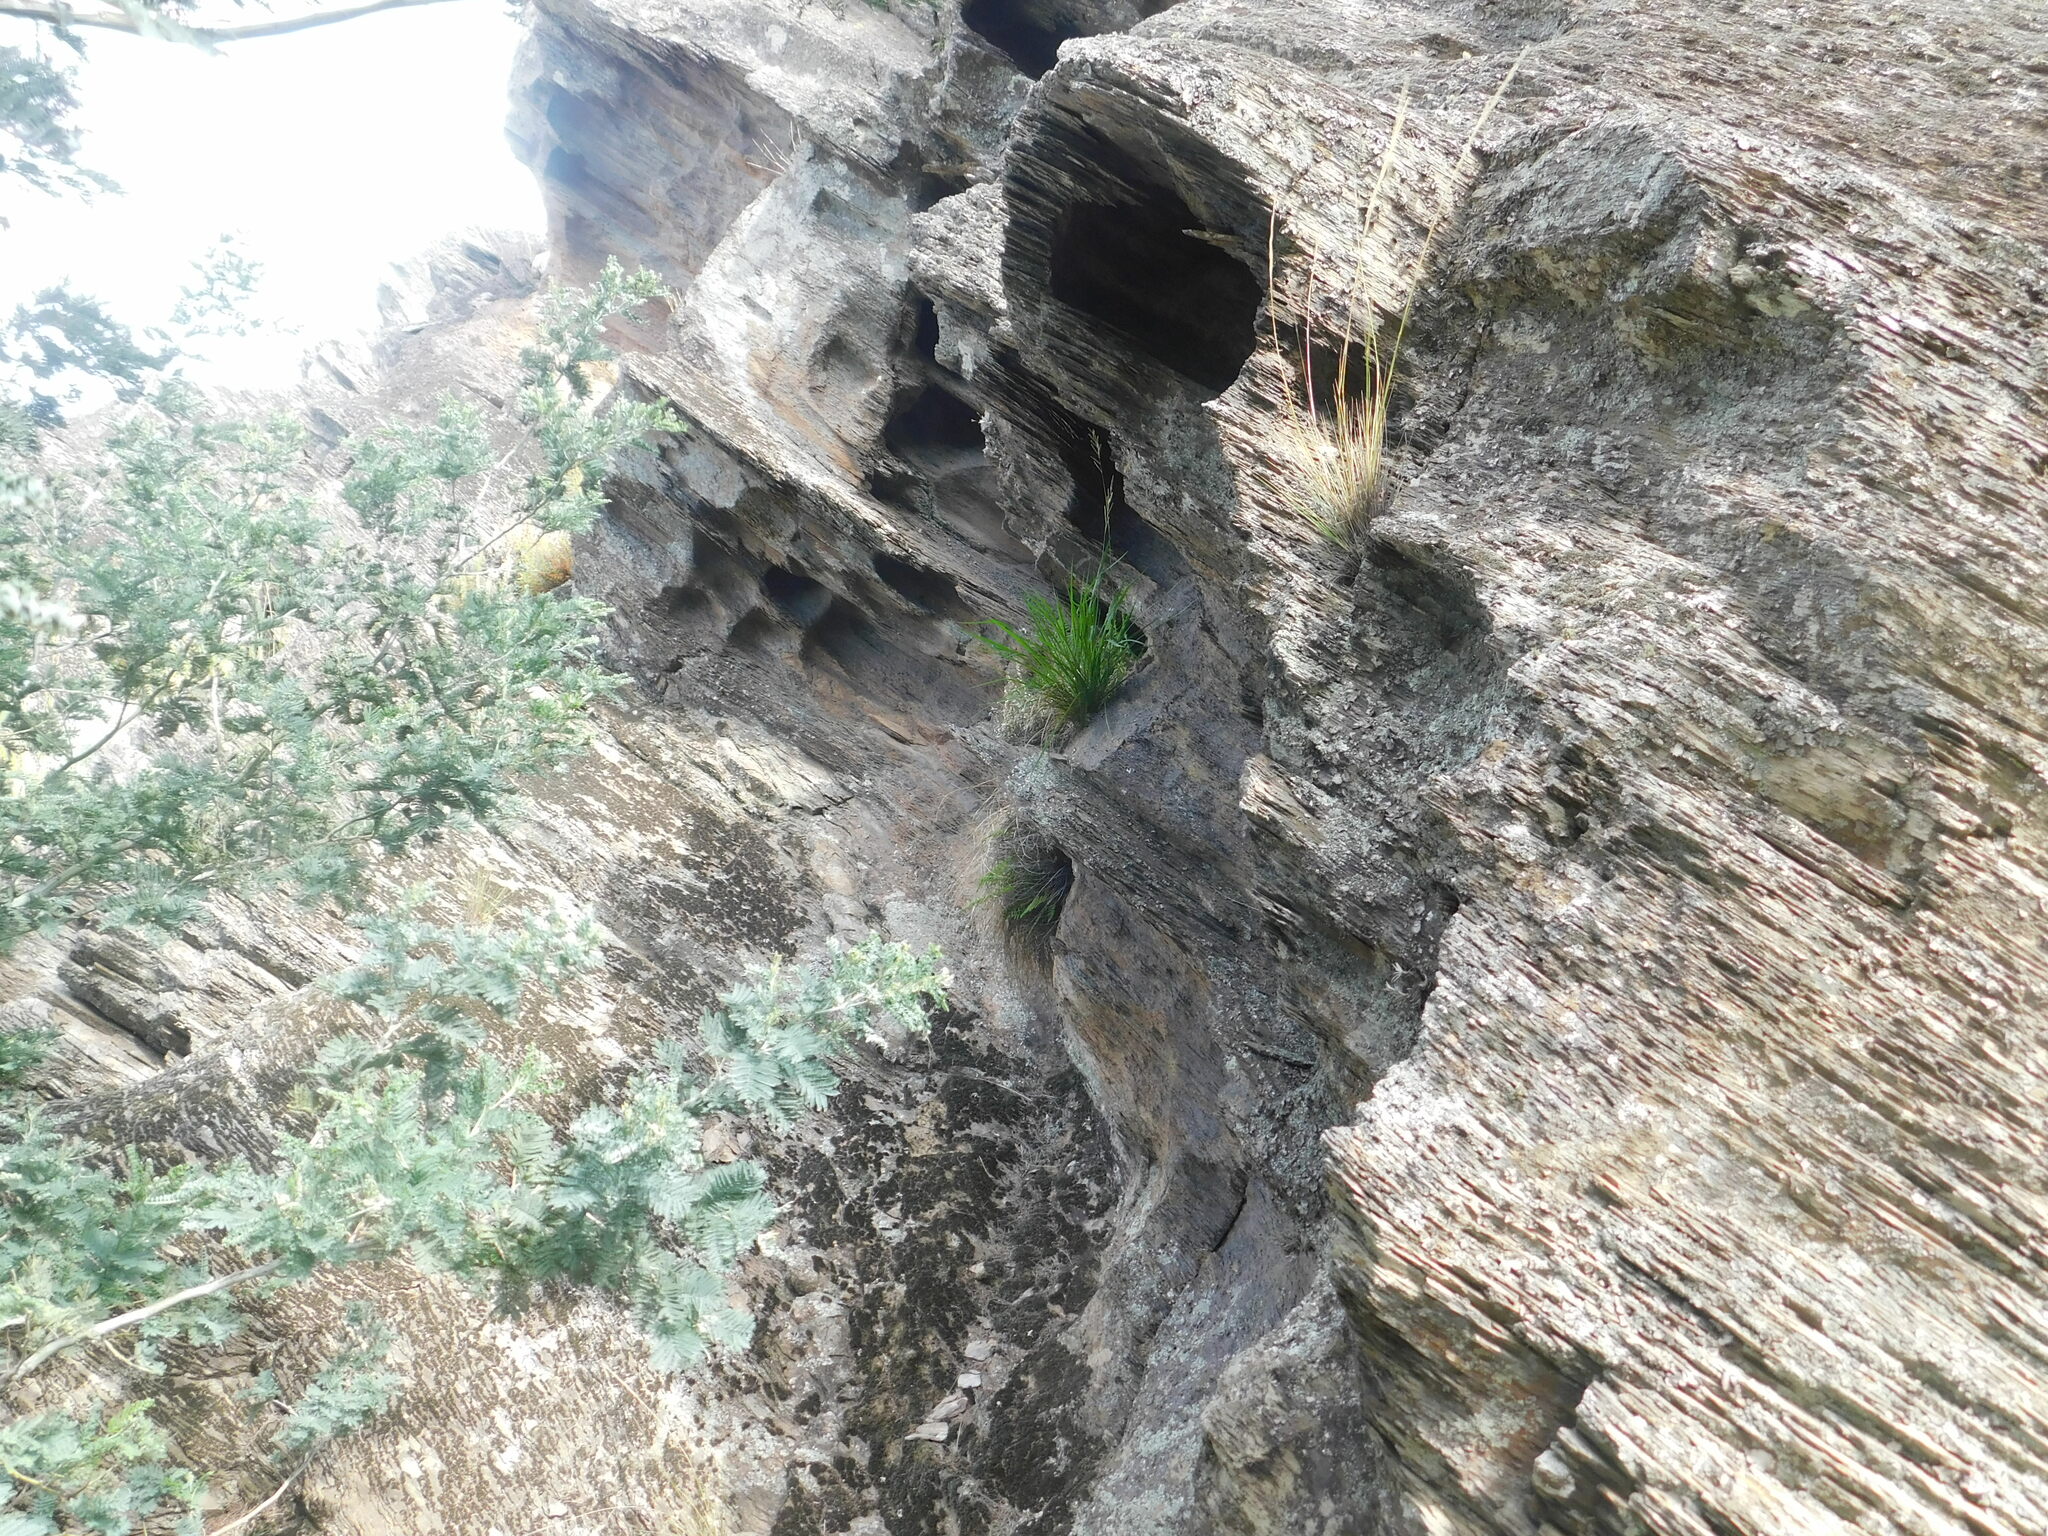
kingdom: Animalia
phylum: Chordata
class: Aves
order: Passeriformes
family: Passerellidae
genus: Zonotrichia
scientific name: Zonotrichia capensis
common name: Rufous-collared sparrow
